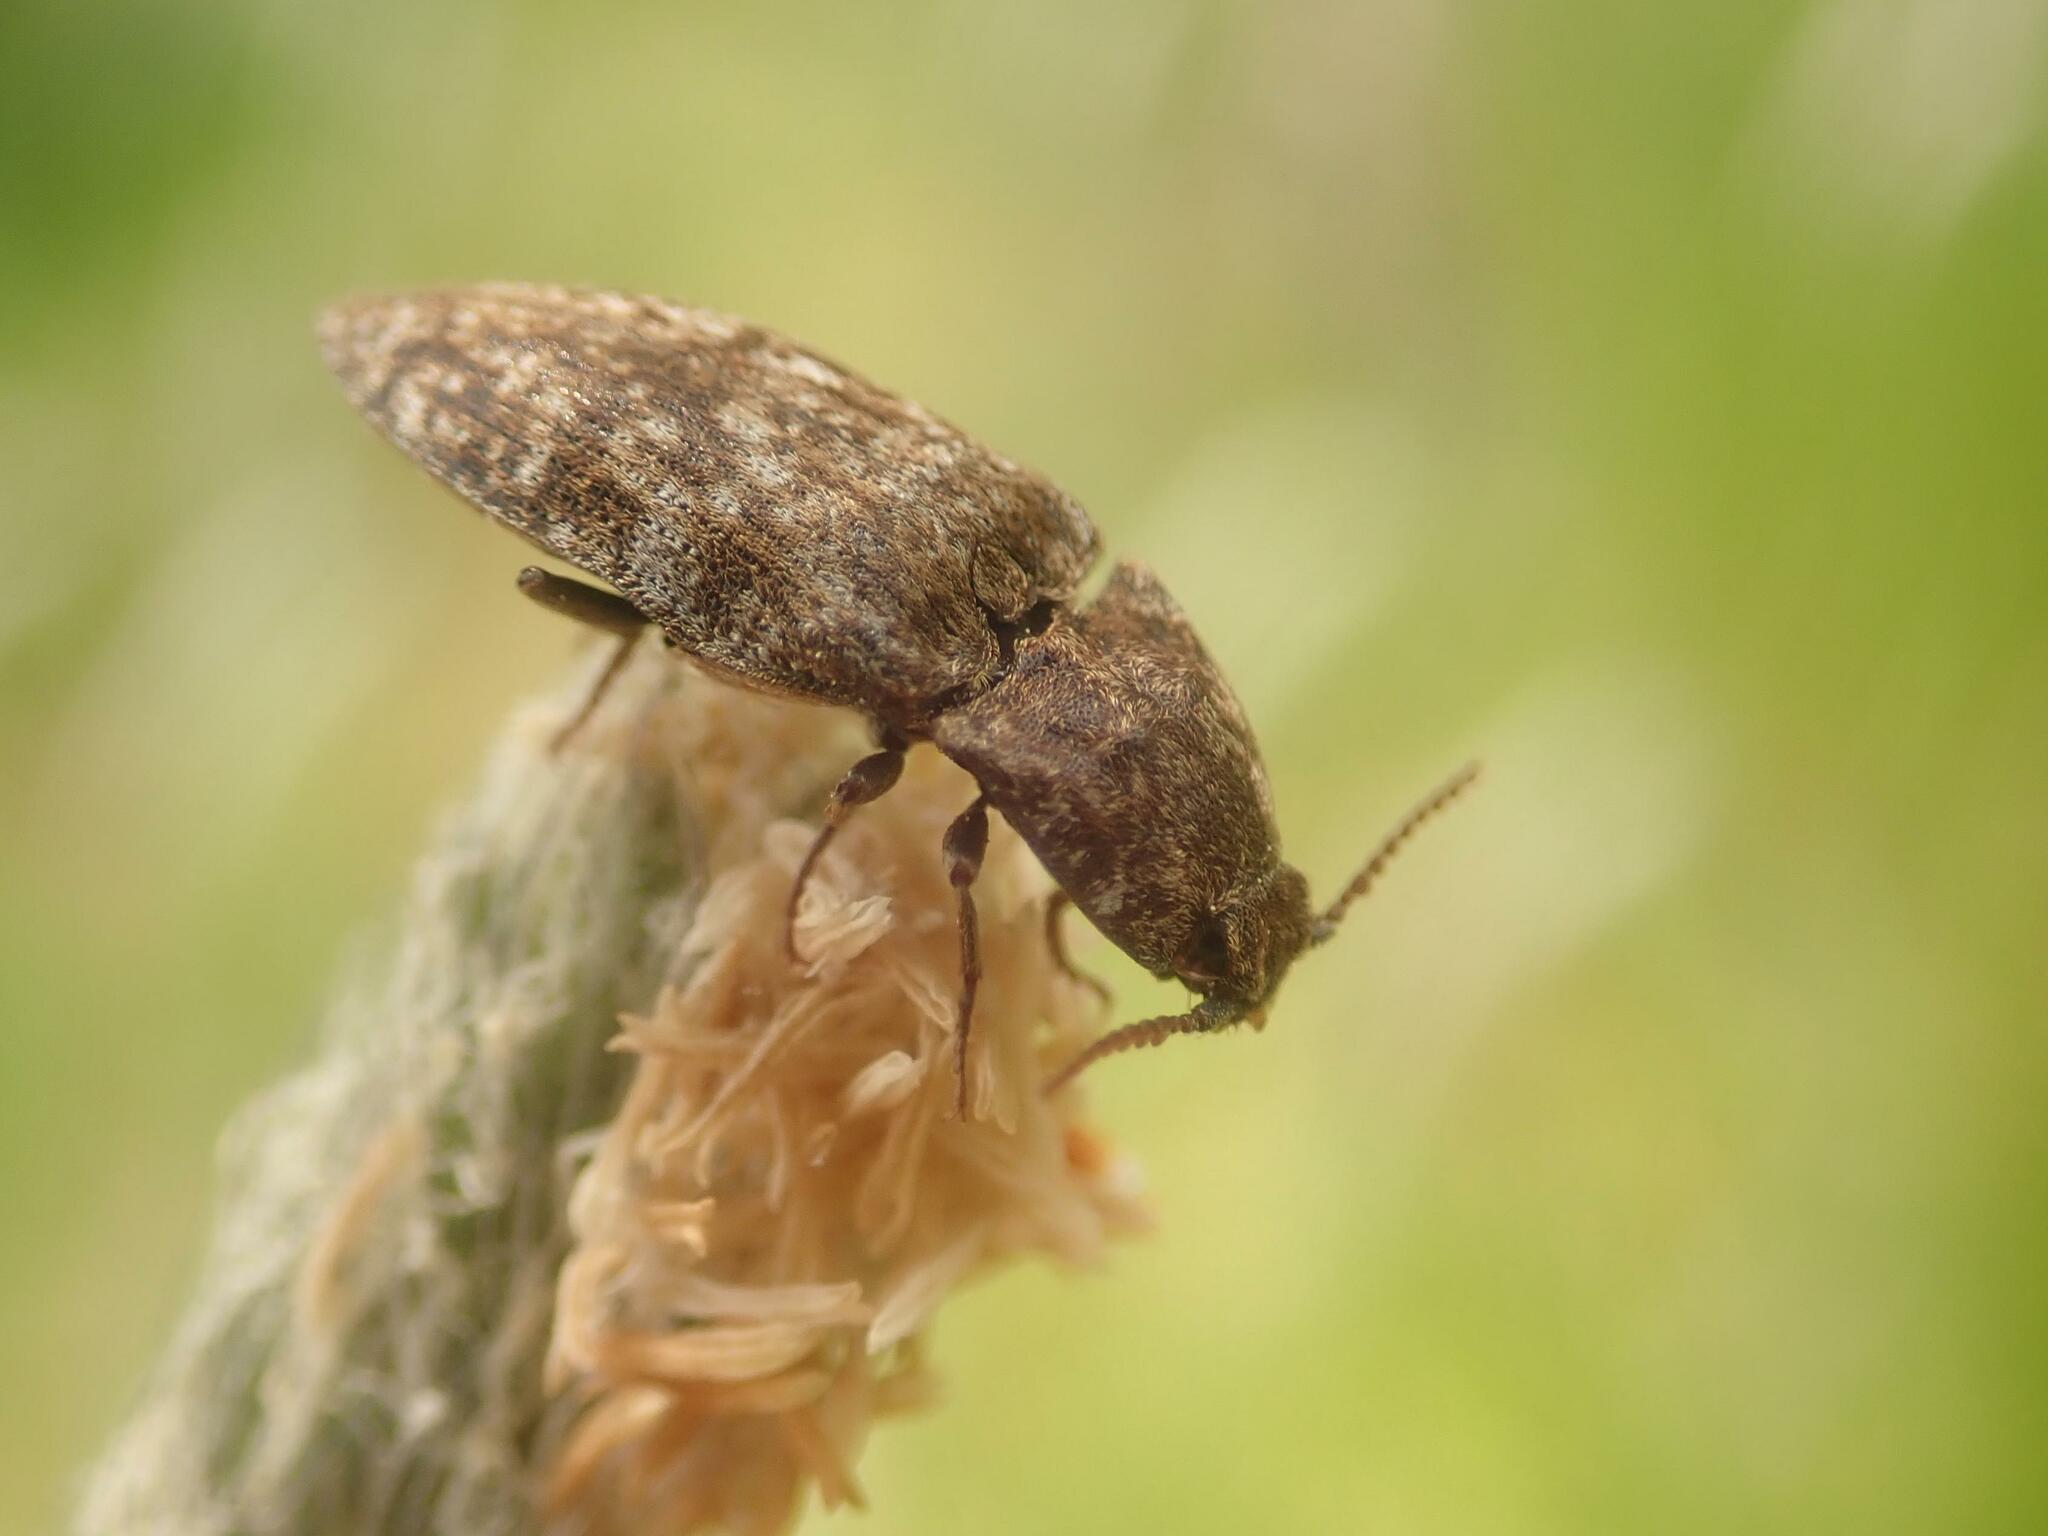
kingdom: Animalia
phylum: Arthropoda
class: Insecta
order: Coleoptera
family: Elateridae
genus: Agrypnus
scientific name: Agrypnus murinus
